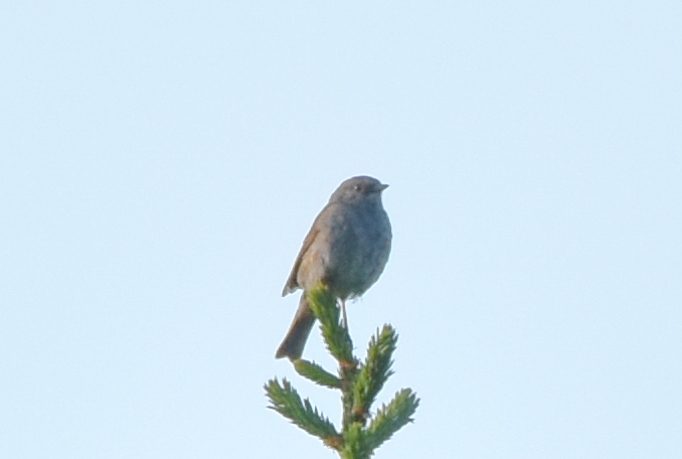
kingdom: Animalia
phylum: Chordata
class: Aves
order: Passeriformes
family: Prunellidae
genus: Prunella
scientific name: Prunella modularis
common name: Dunnock
